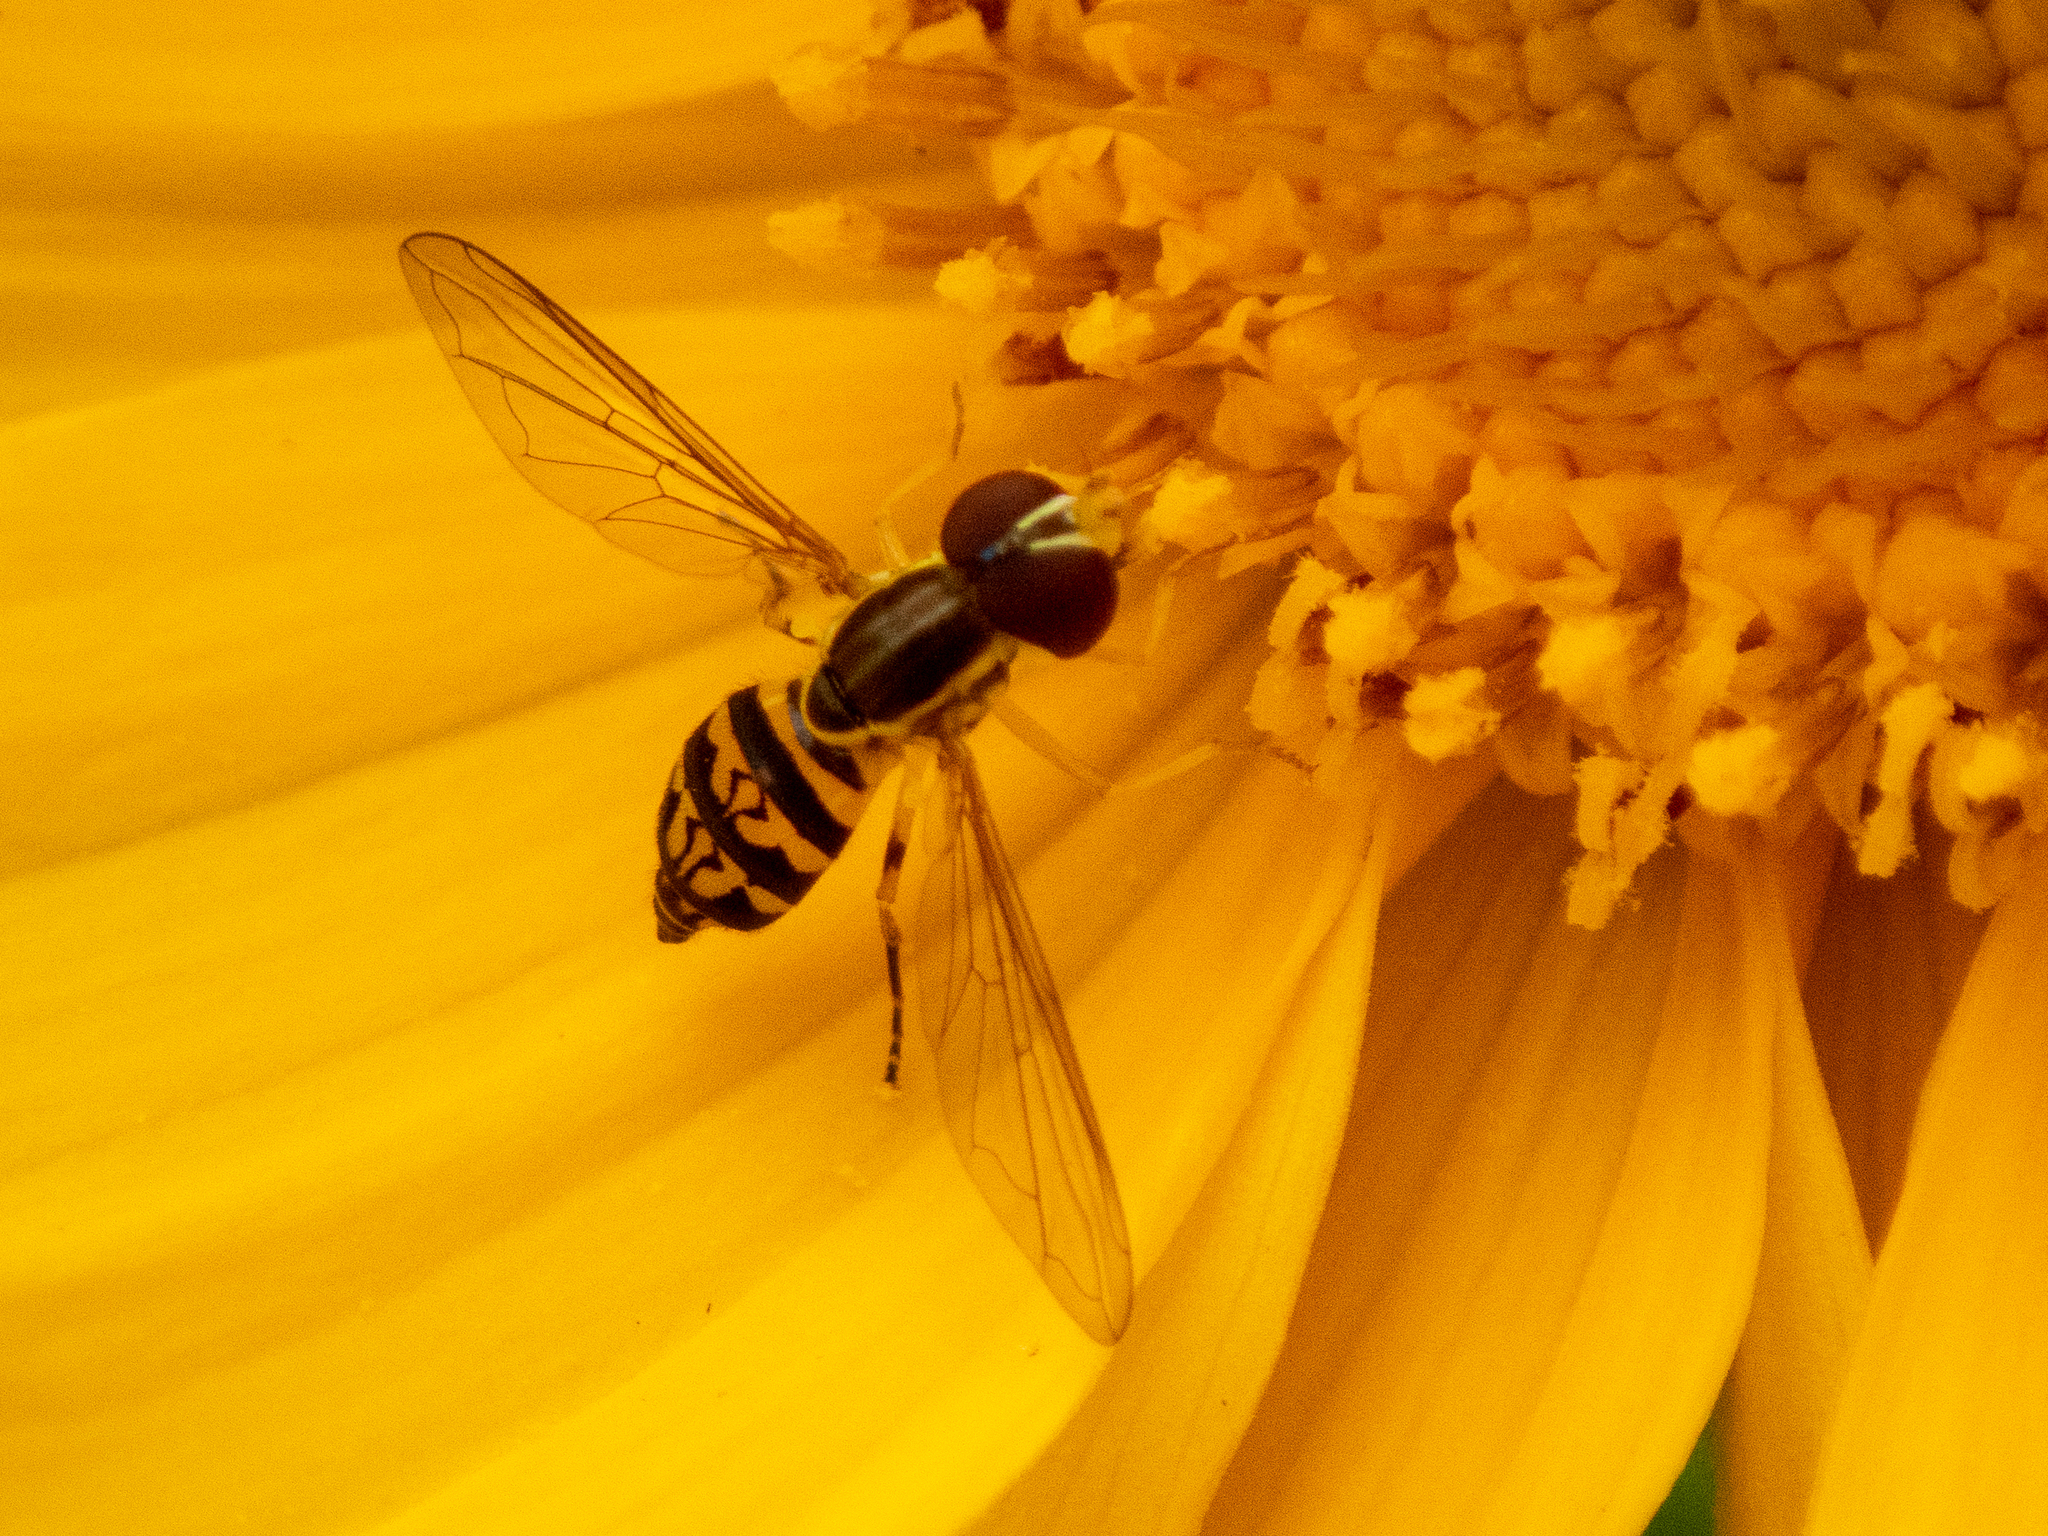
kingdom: Animalia
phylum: Arthropoda
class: Insecta
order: Diptera
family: Syrphidae
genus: Toxomerus
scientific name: Toxomerus geminatus
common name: Eastern calligrapher
